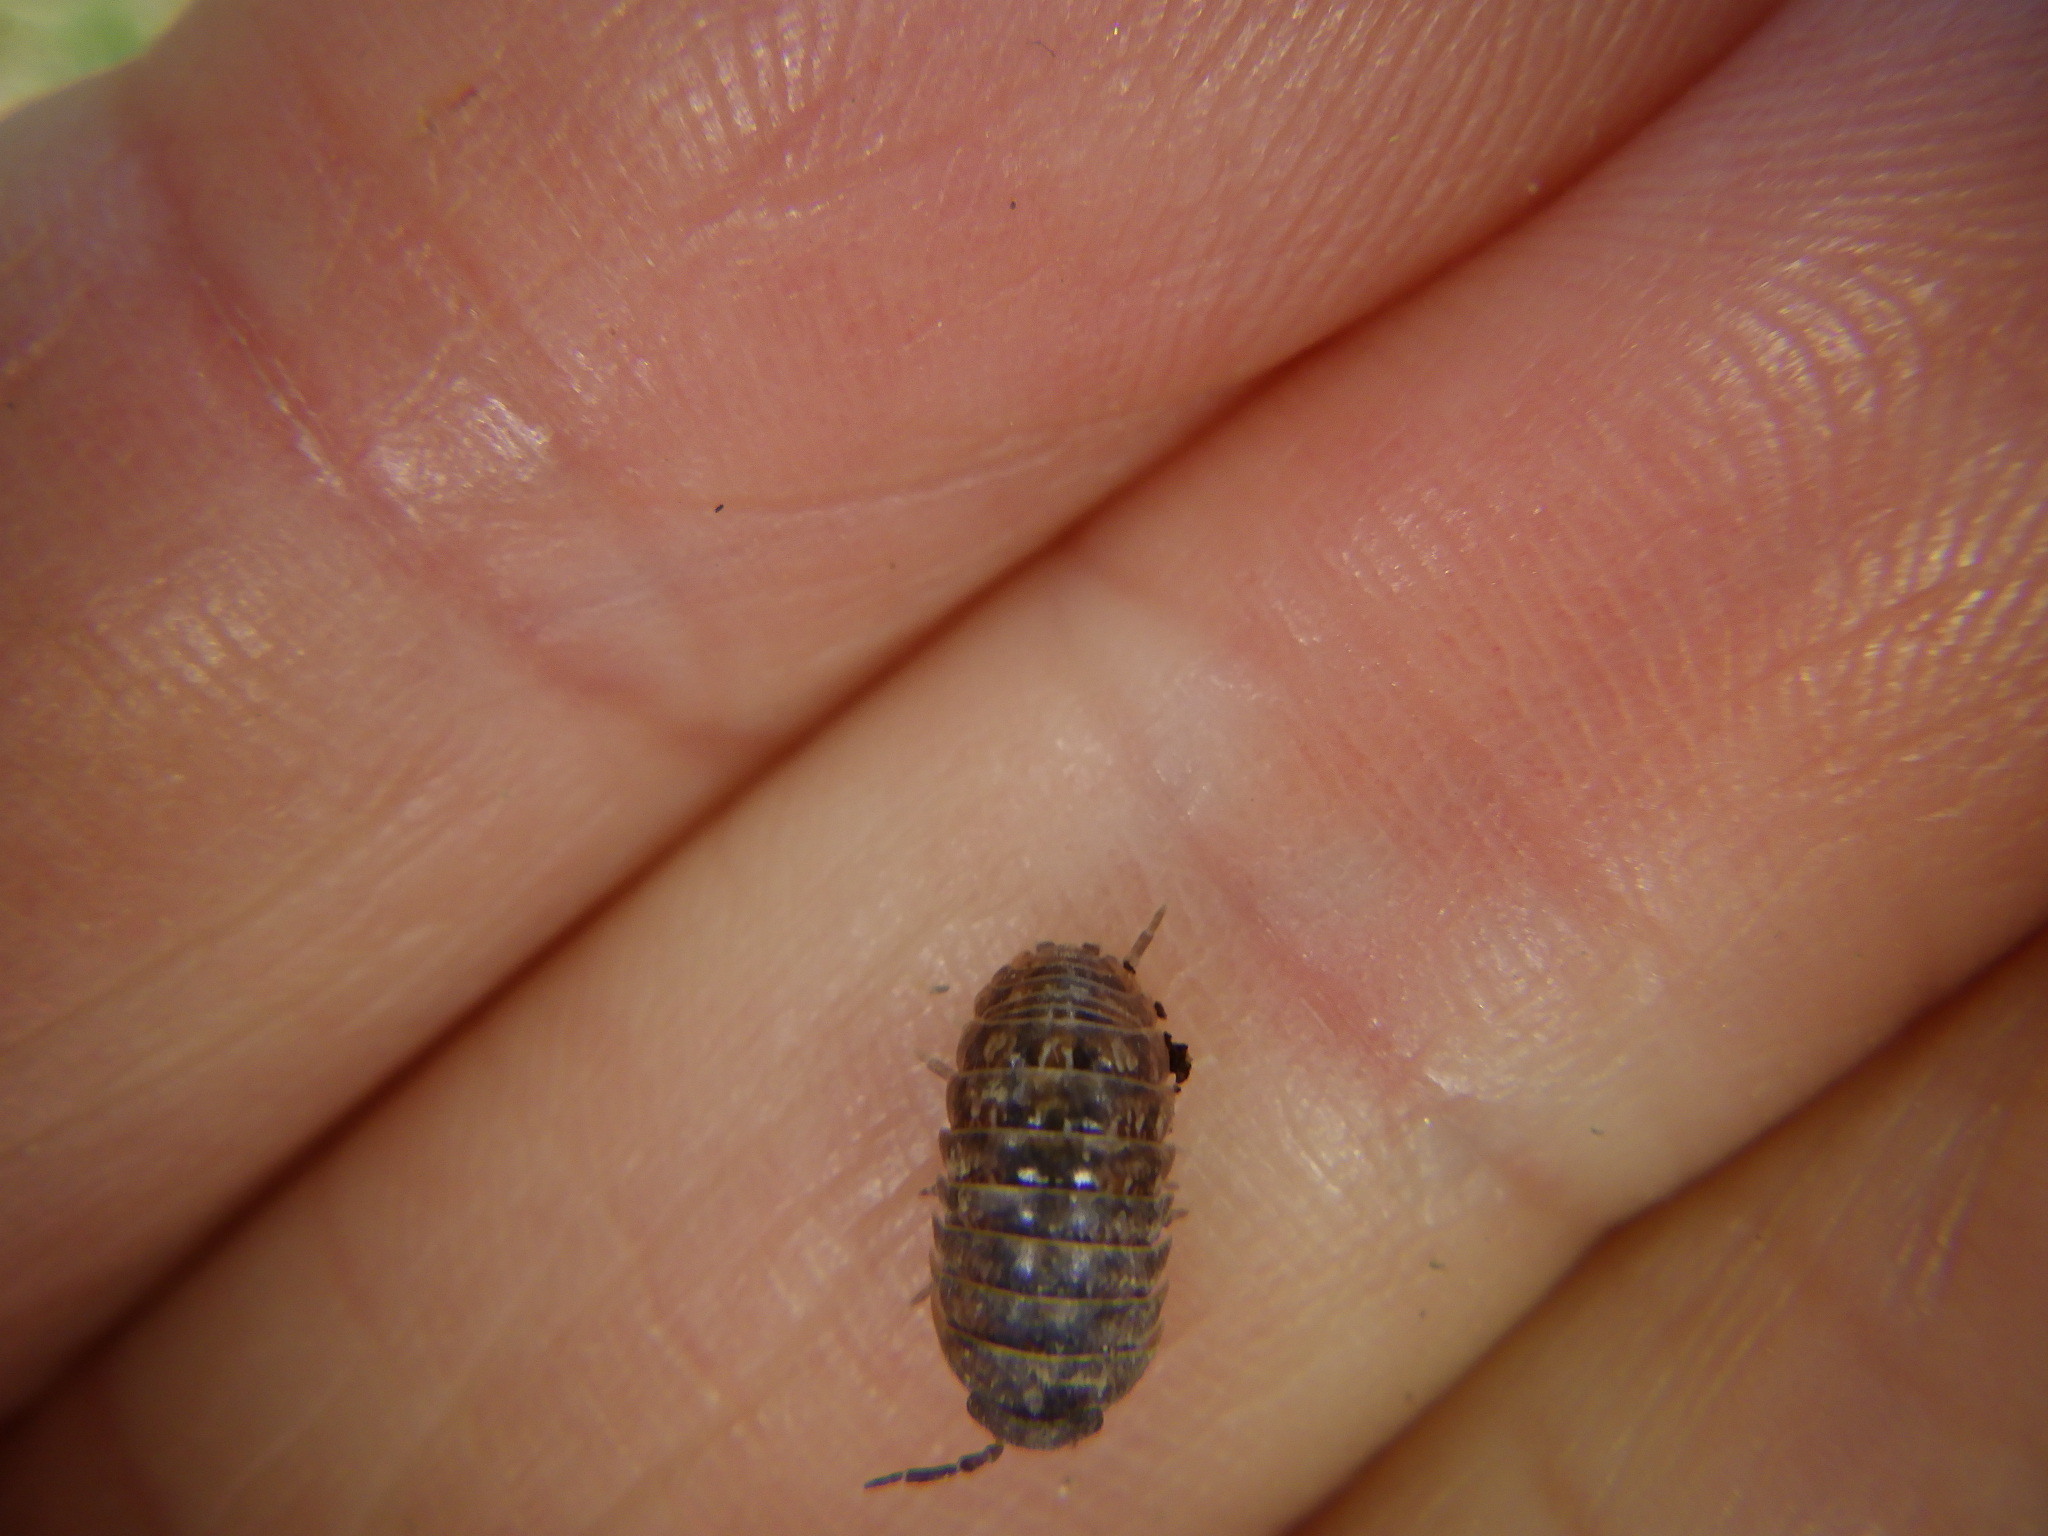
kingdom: Animalia
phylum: Arthropoda
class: Malacostraca
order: Isopoda
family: Armadillidiidae
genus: Armadillidium
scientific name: Armadillidium vulgare
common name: Common pill woodlouse
